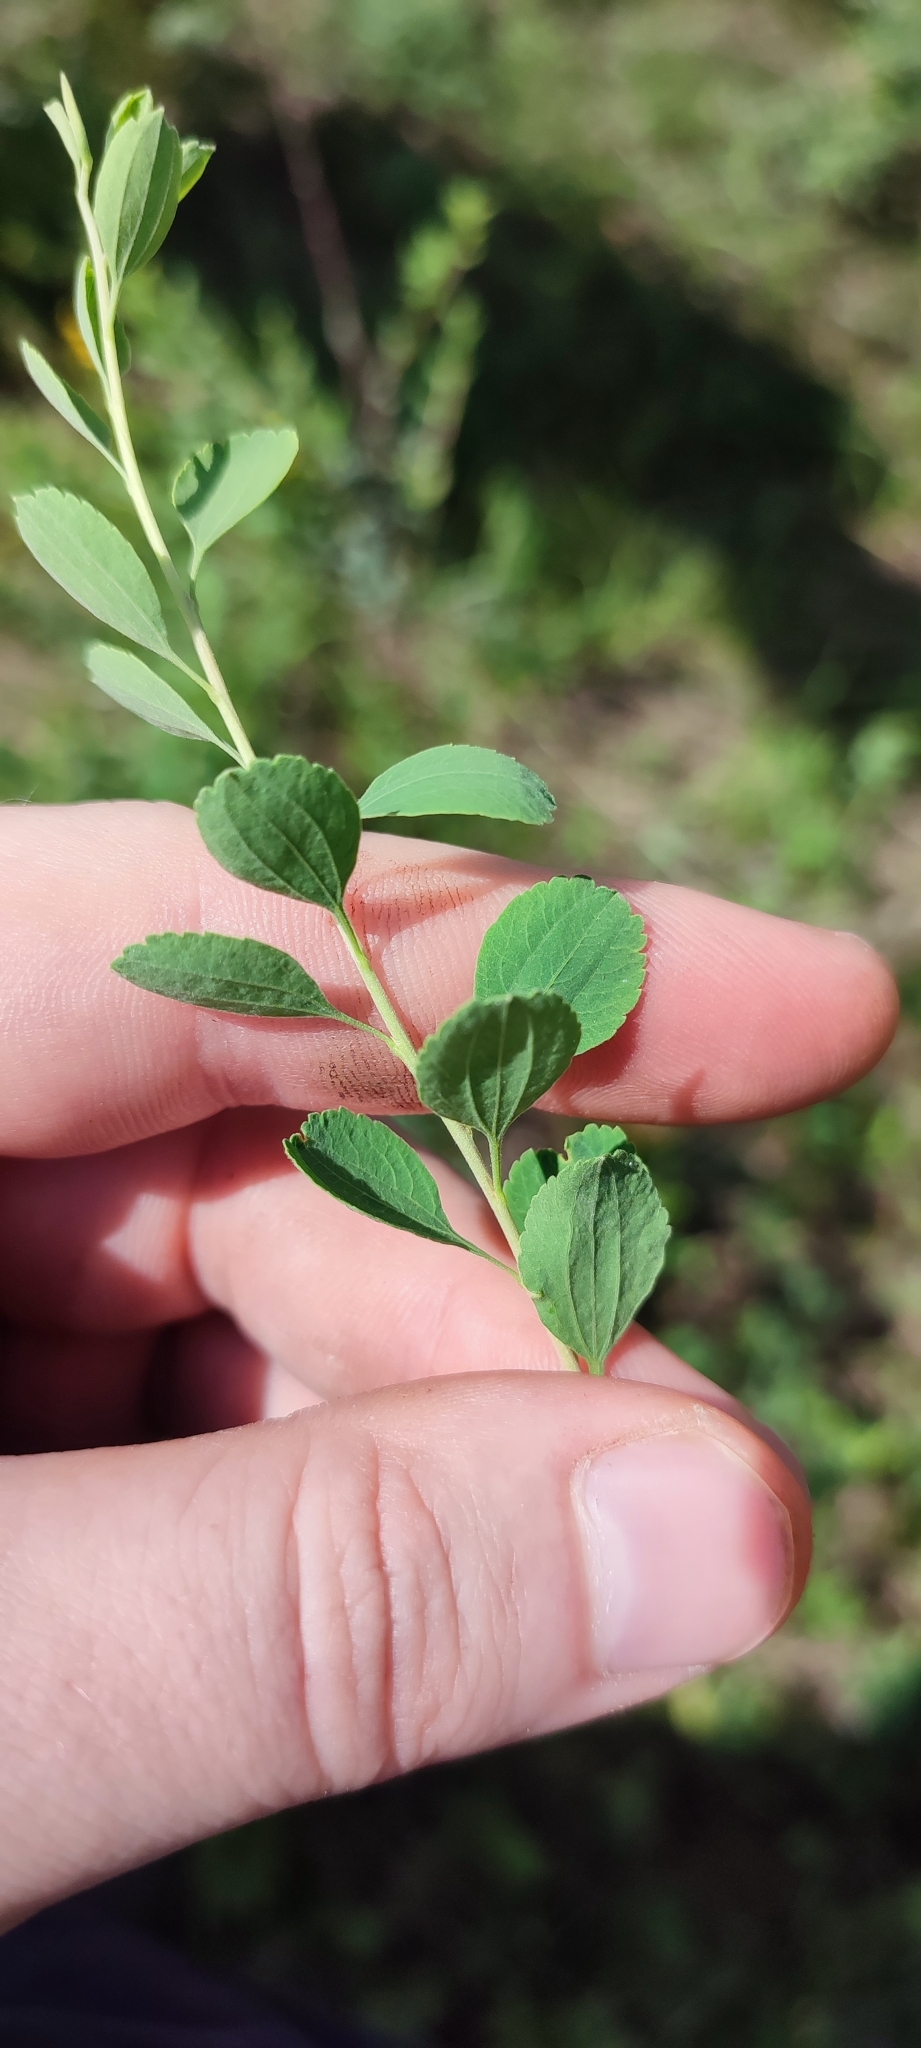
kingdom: Plantae
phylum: Tracheophyta
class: Magnoliopsida
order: Rosales
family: Rosaceae
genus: Spiraea
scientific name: Spiraea crenata
